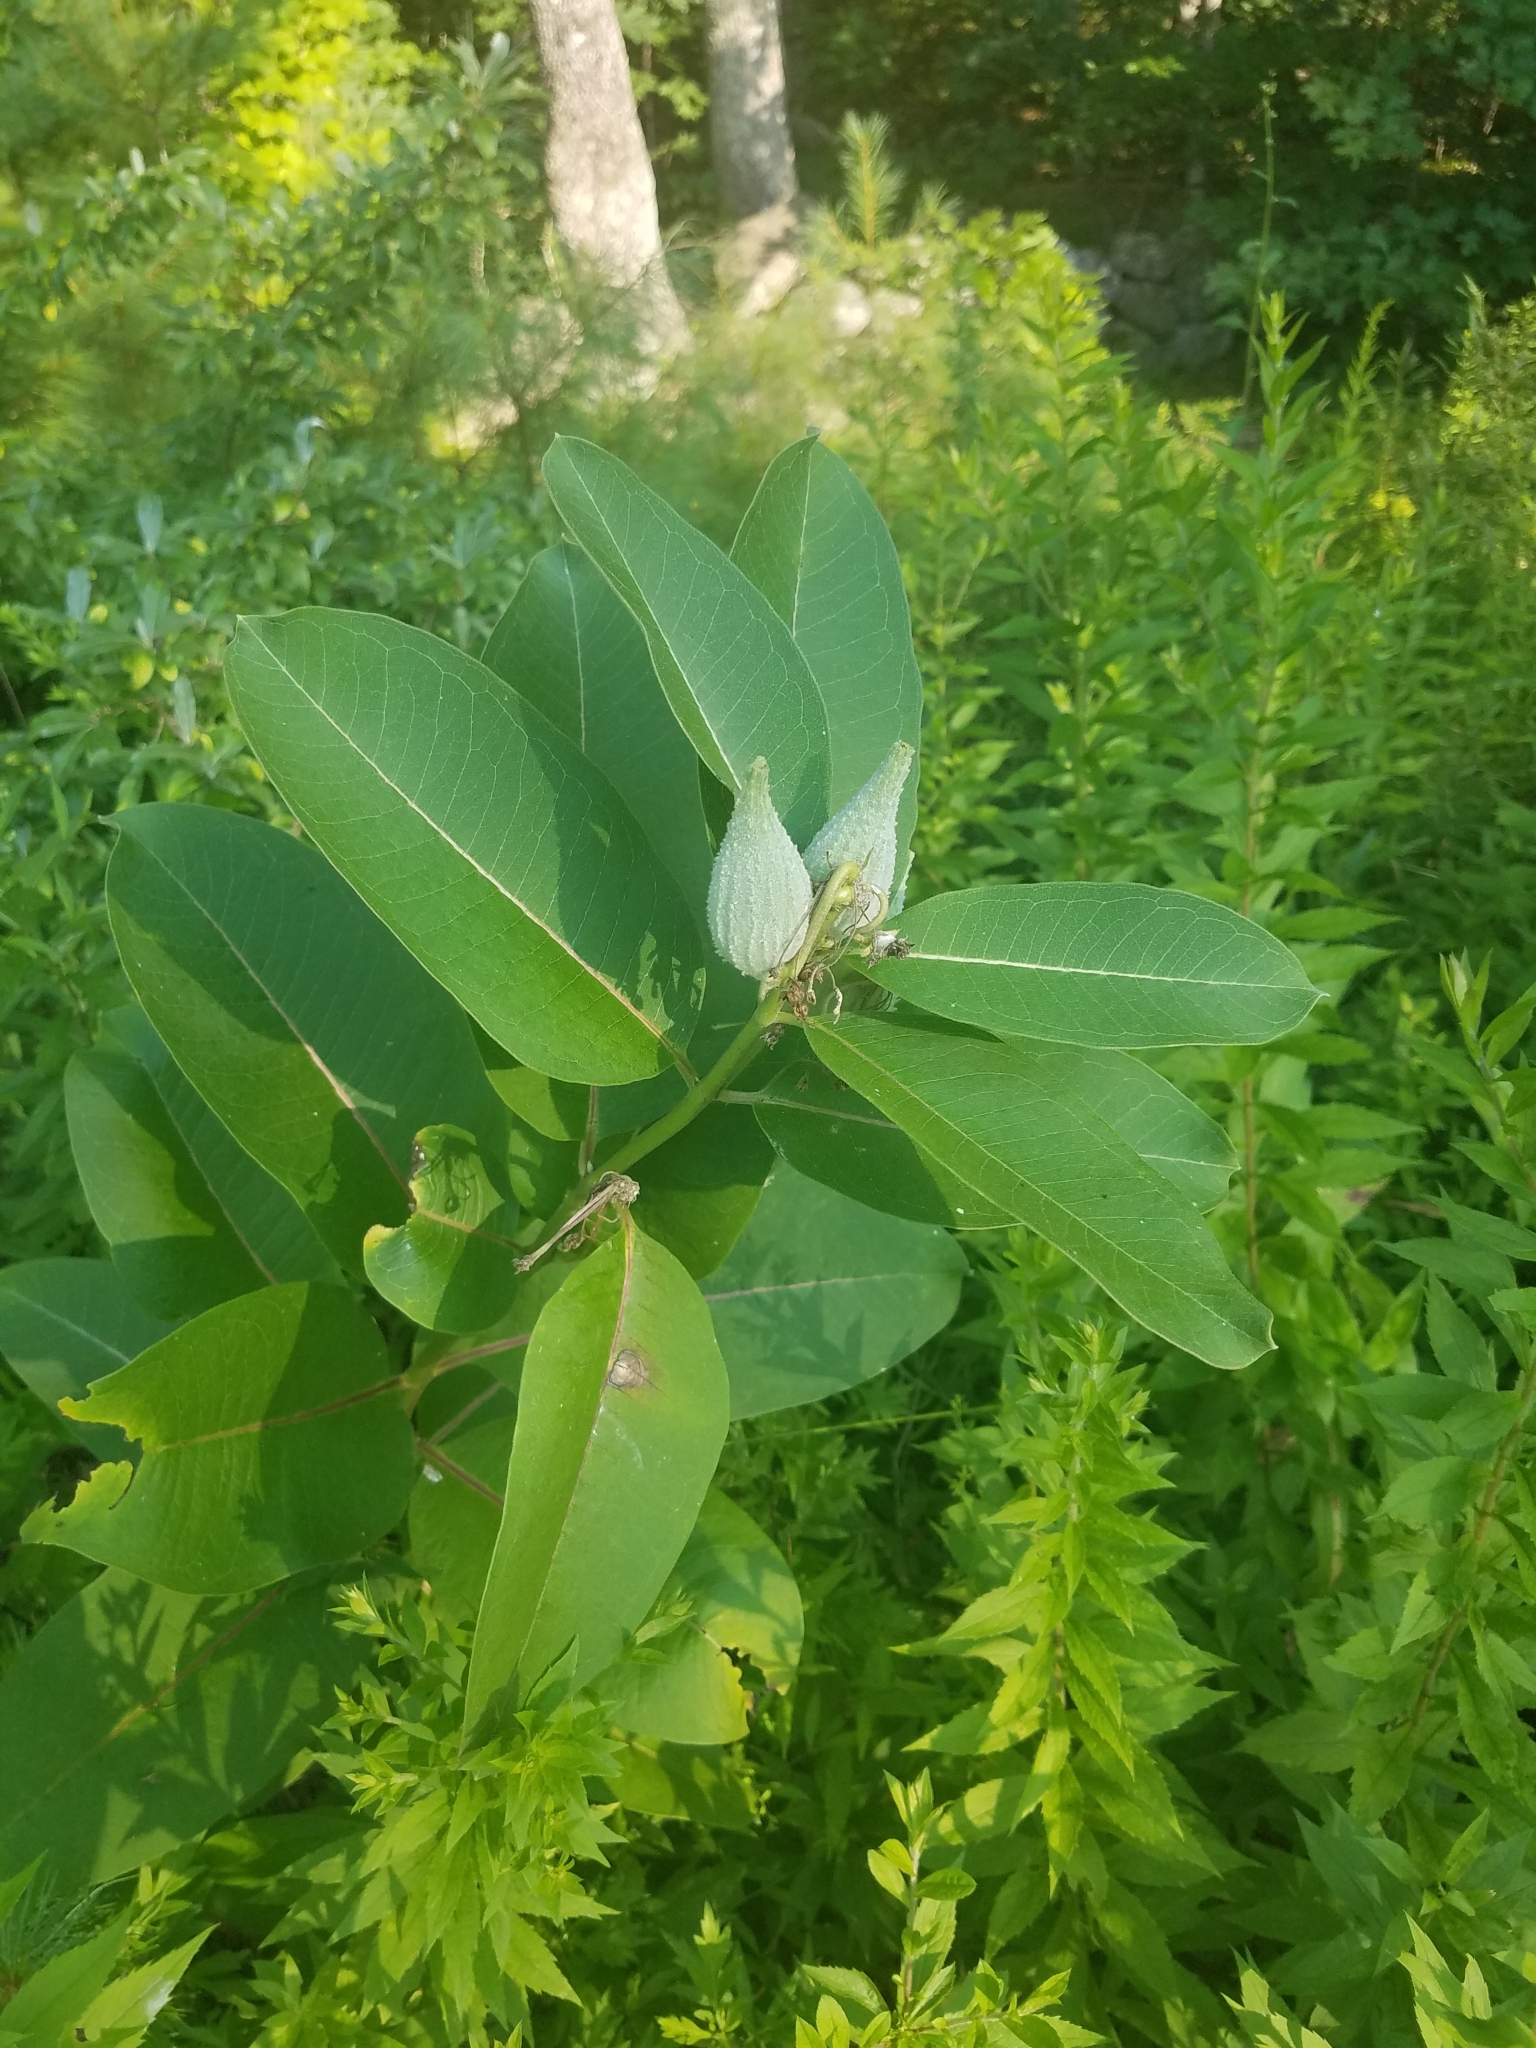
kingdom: Plantae
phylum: Tracheophyta
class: Magnoliopsida
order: Gentianales
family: Apocynaceae
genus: Asclepias
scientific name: Asclepias syriaca
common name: Common milkweed
